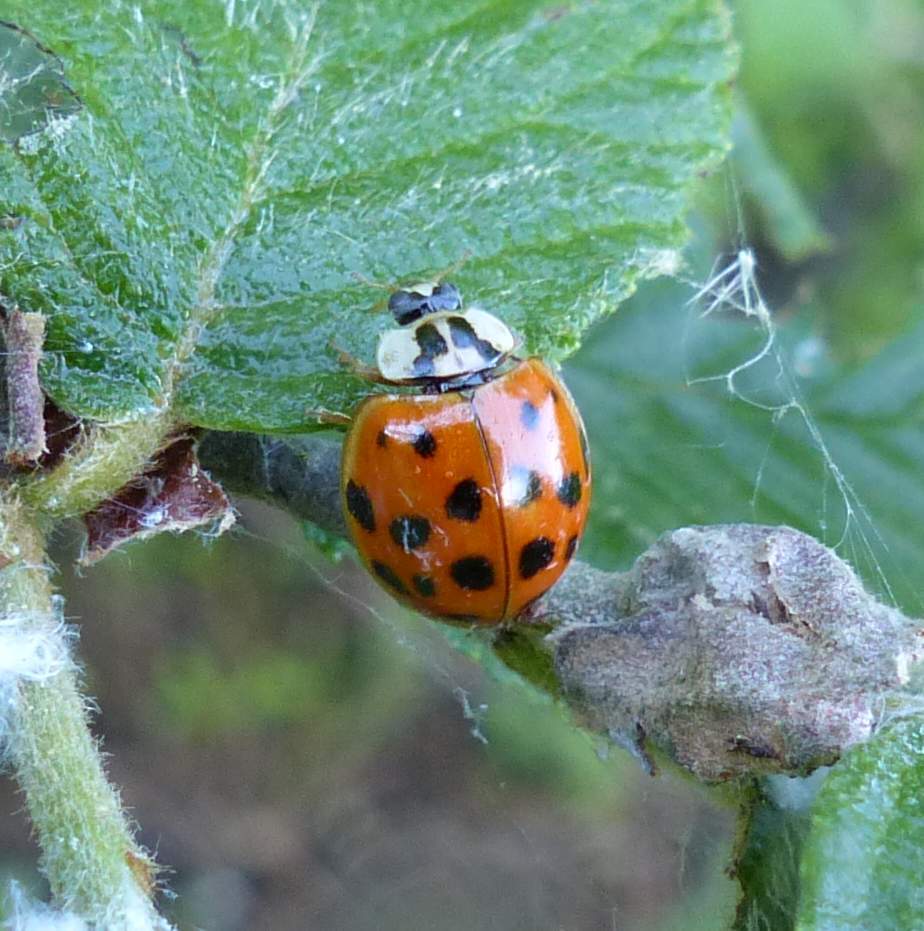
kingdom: Animalia
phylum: Arthropoda
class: Insecta
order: Coleoptera
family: Coccinellidae
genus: Harmonia
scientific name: Harmonia axyridis
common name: Harlequin ladybird
